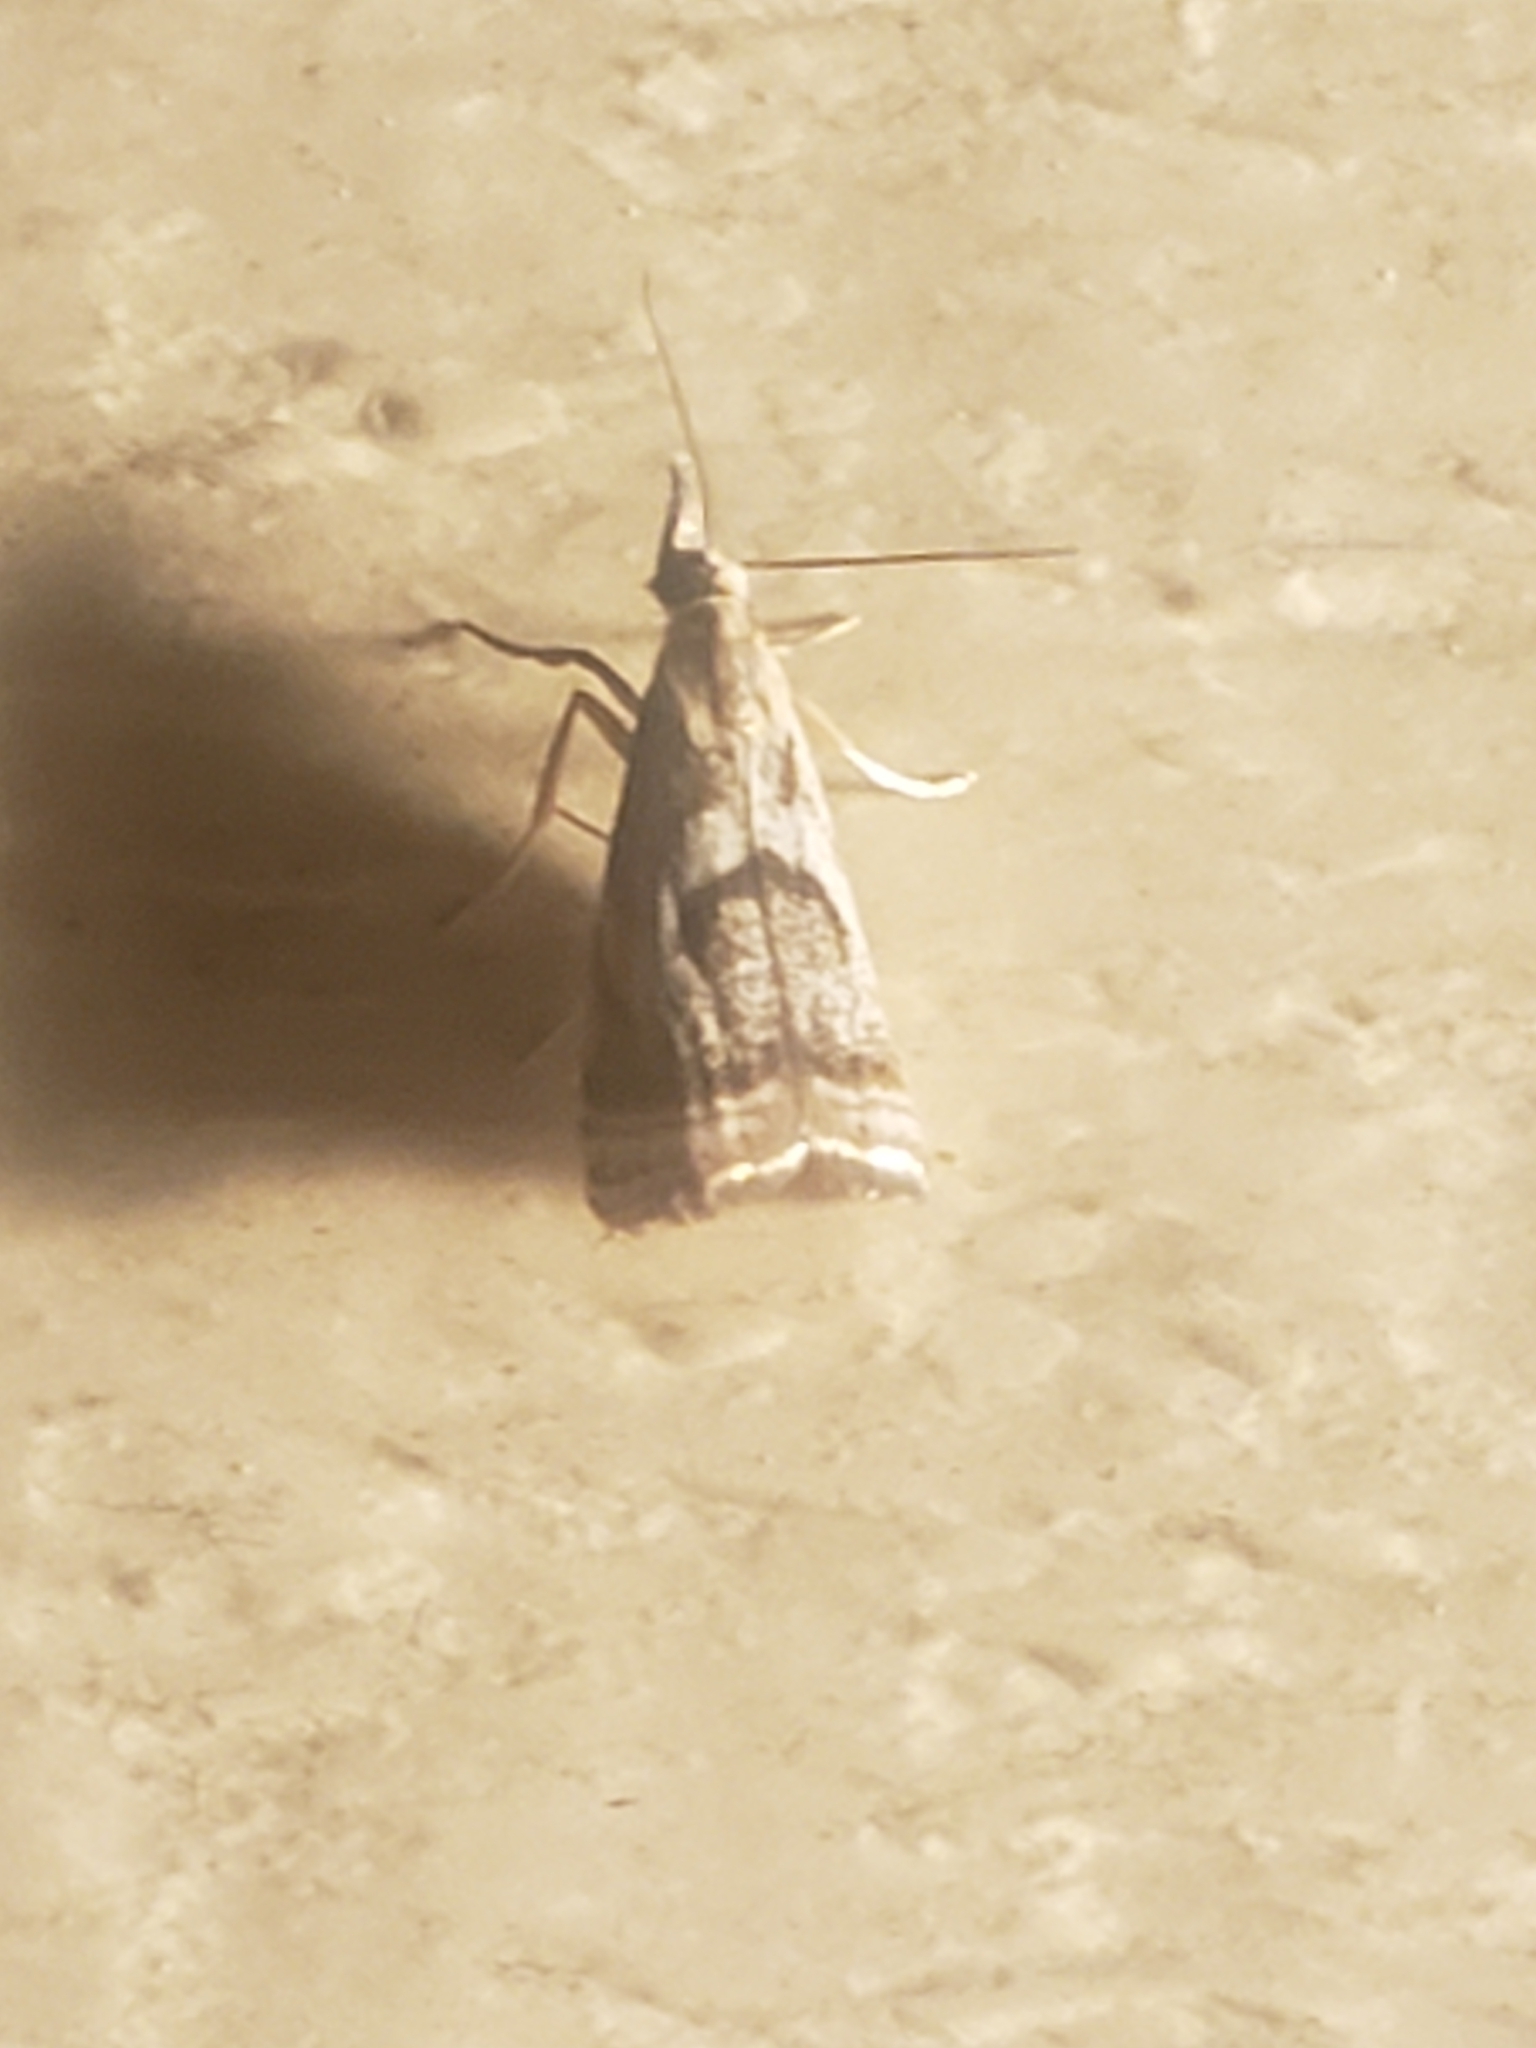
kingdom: Animalia
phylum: Arthropoda
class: Insecta
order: Lepidoptera
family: Crambidae
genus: Microcrambus
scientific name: Microcrambus elegans
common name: Elegant grass-veneer
